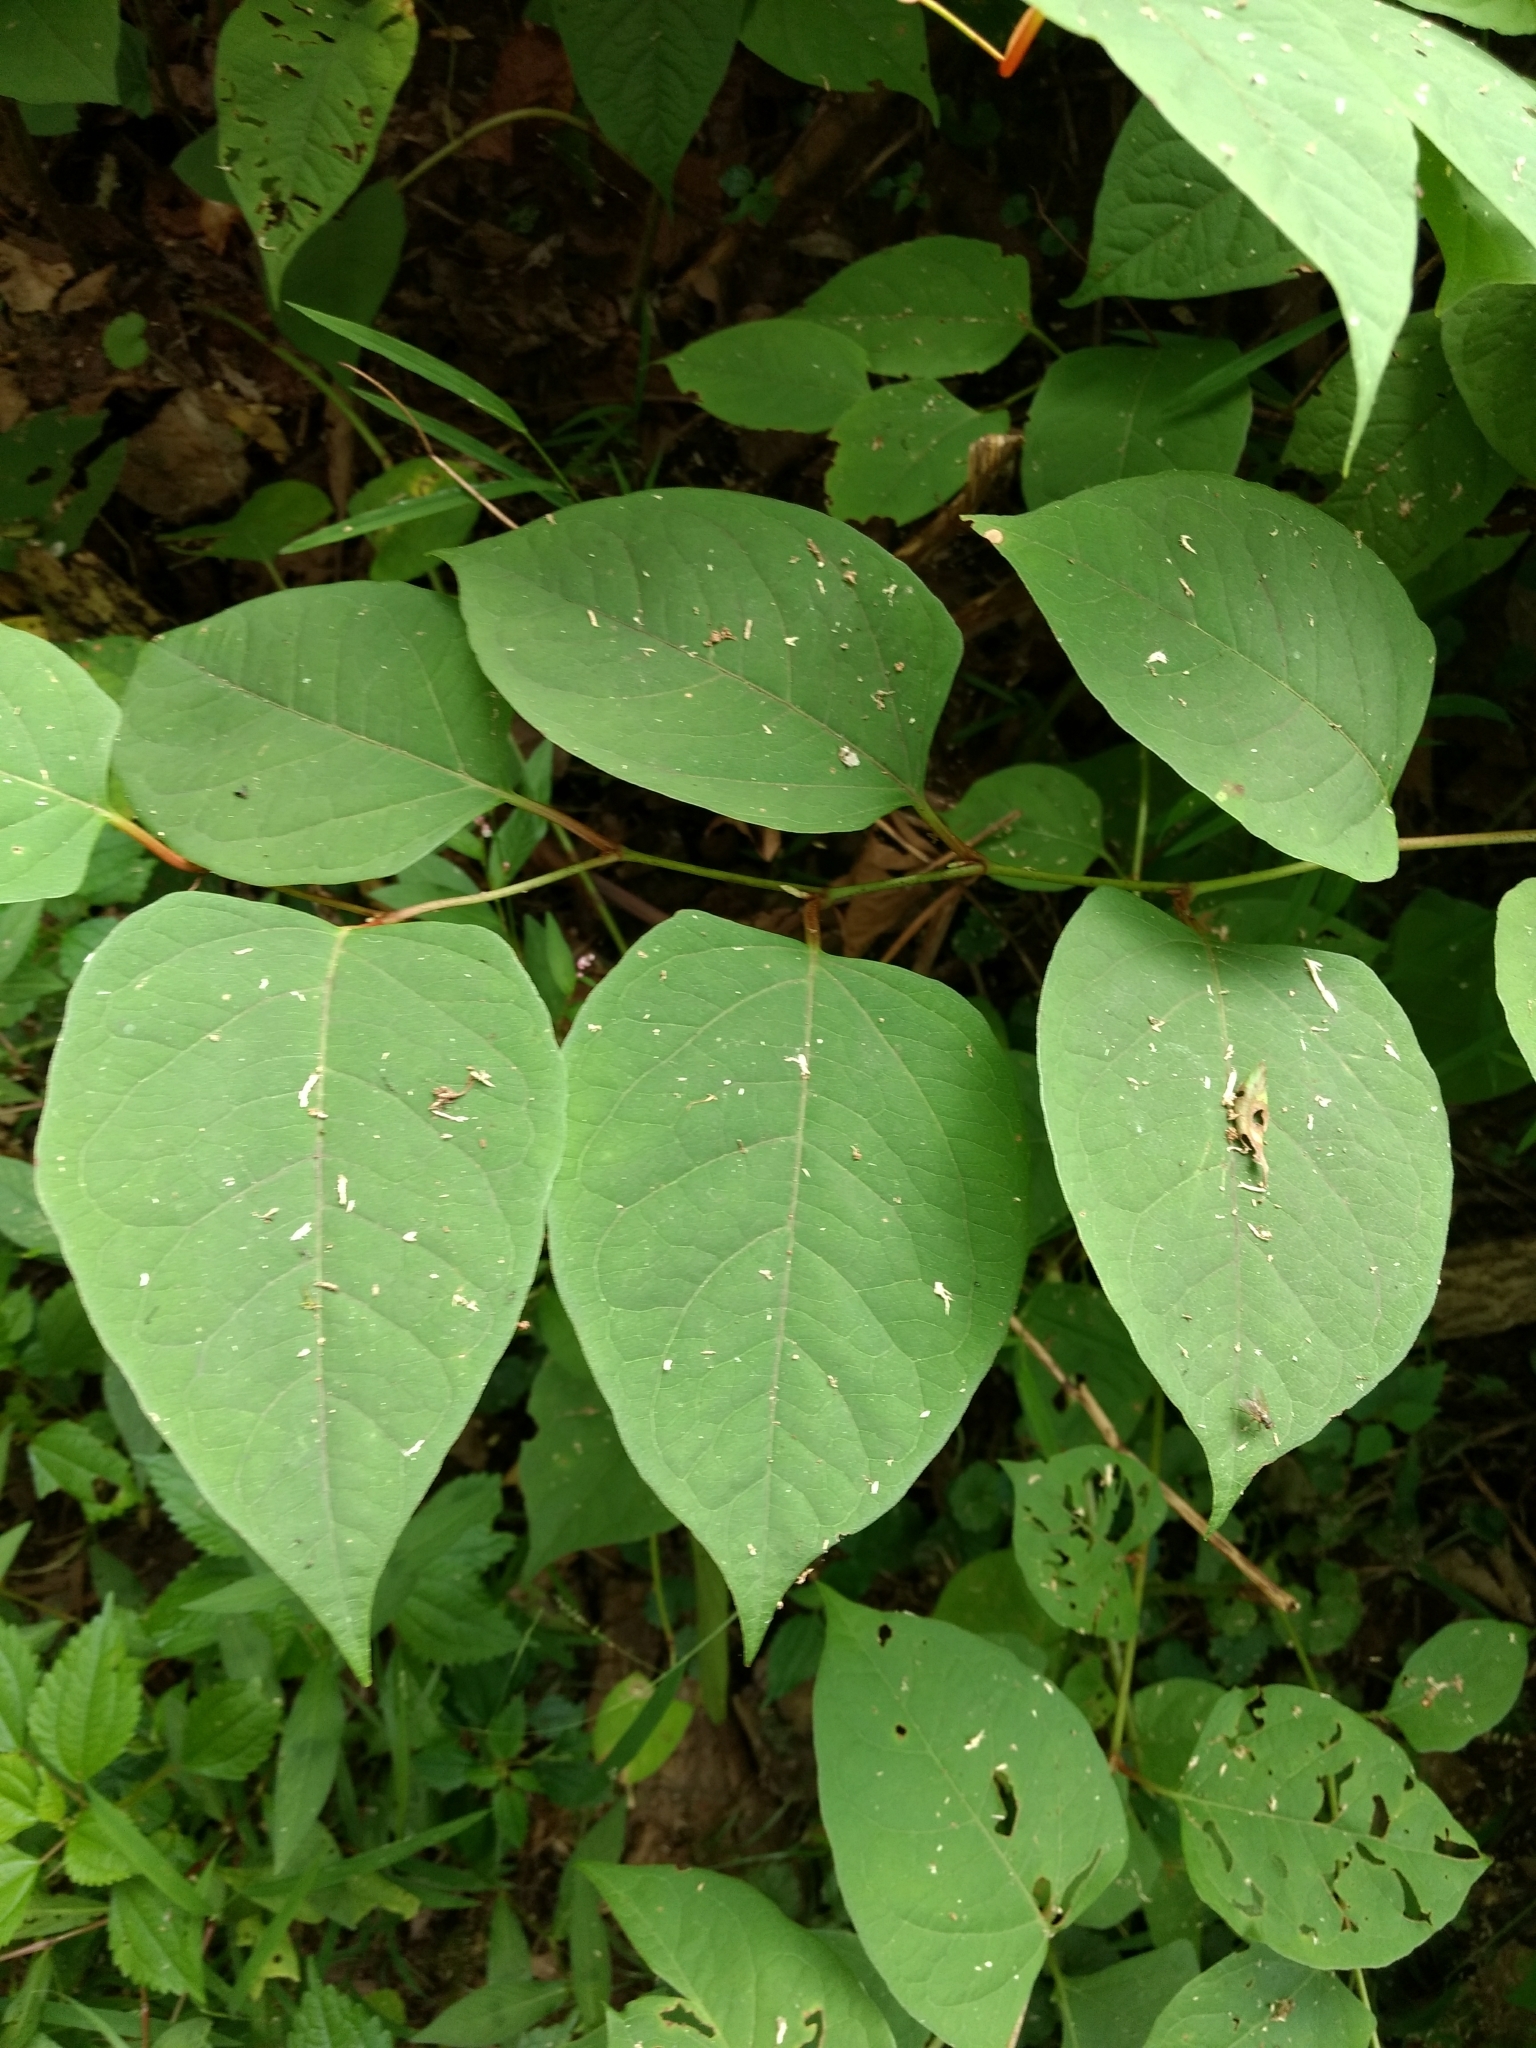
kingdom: Plantae
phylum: Tracheophyta
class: Magnoliopsida
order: Caryophyllales
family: Polygonaceae
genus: Reynoutria
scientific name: Reynoutria japonica
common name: Japanese knotweed
